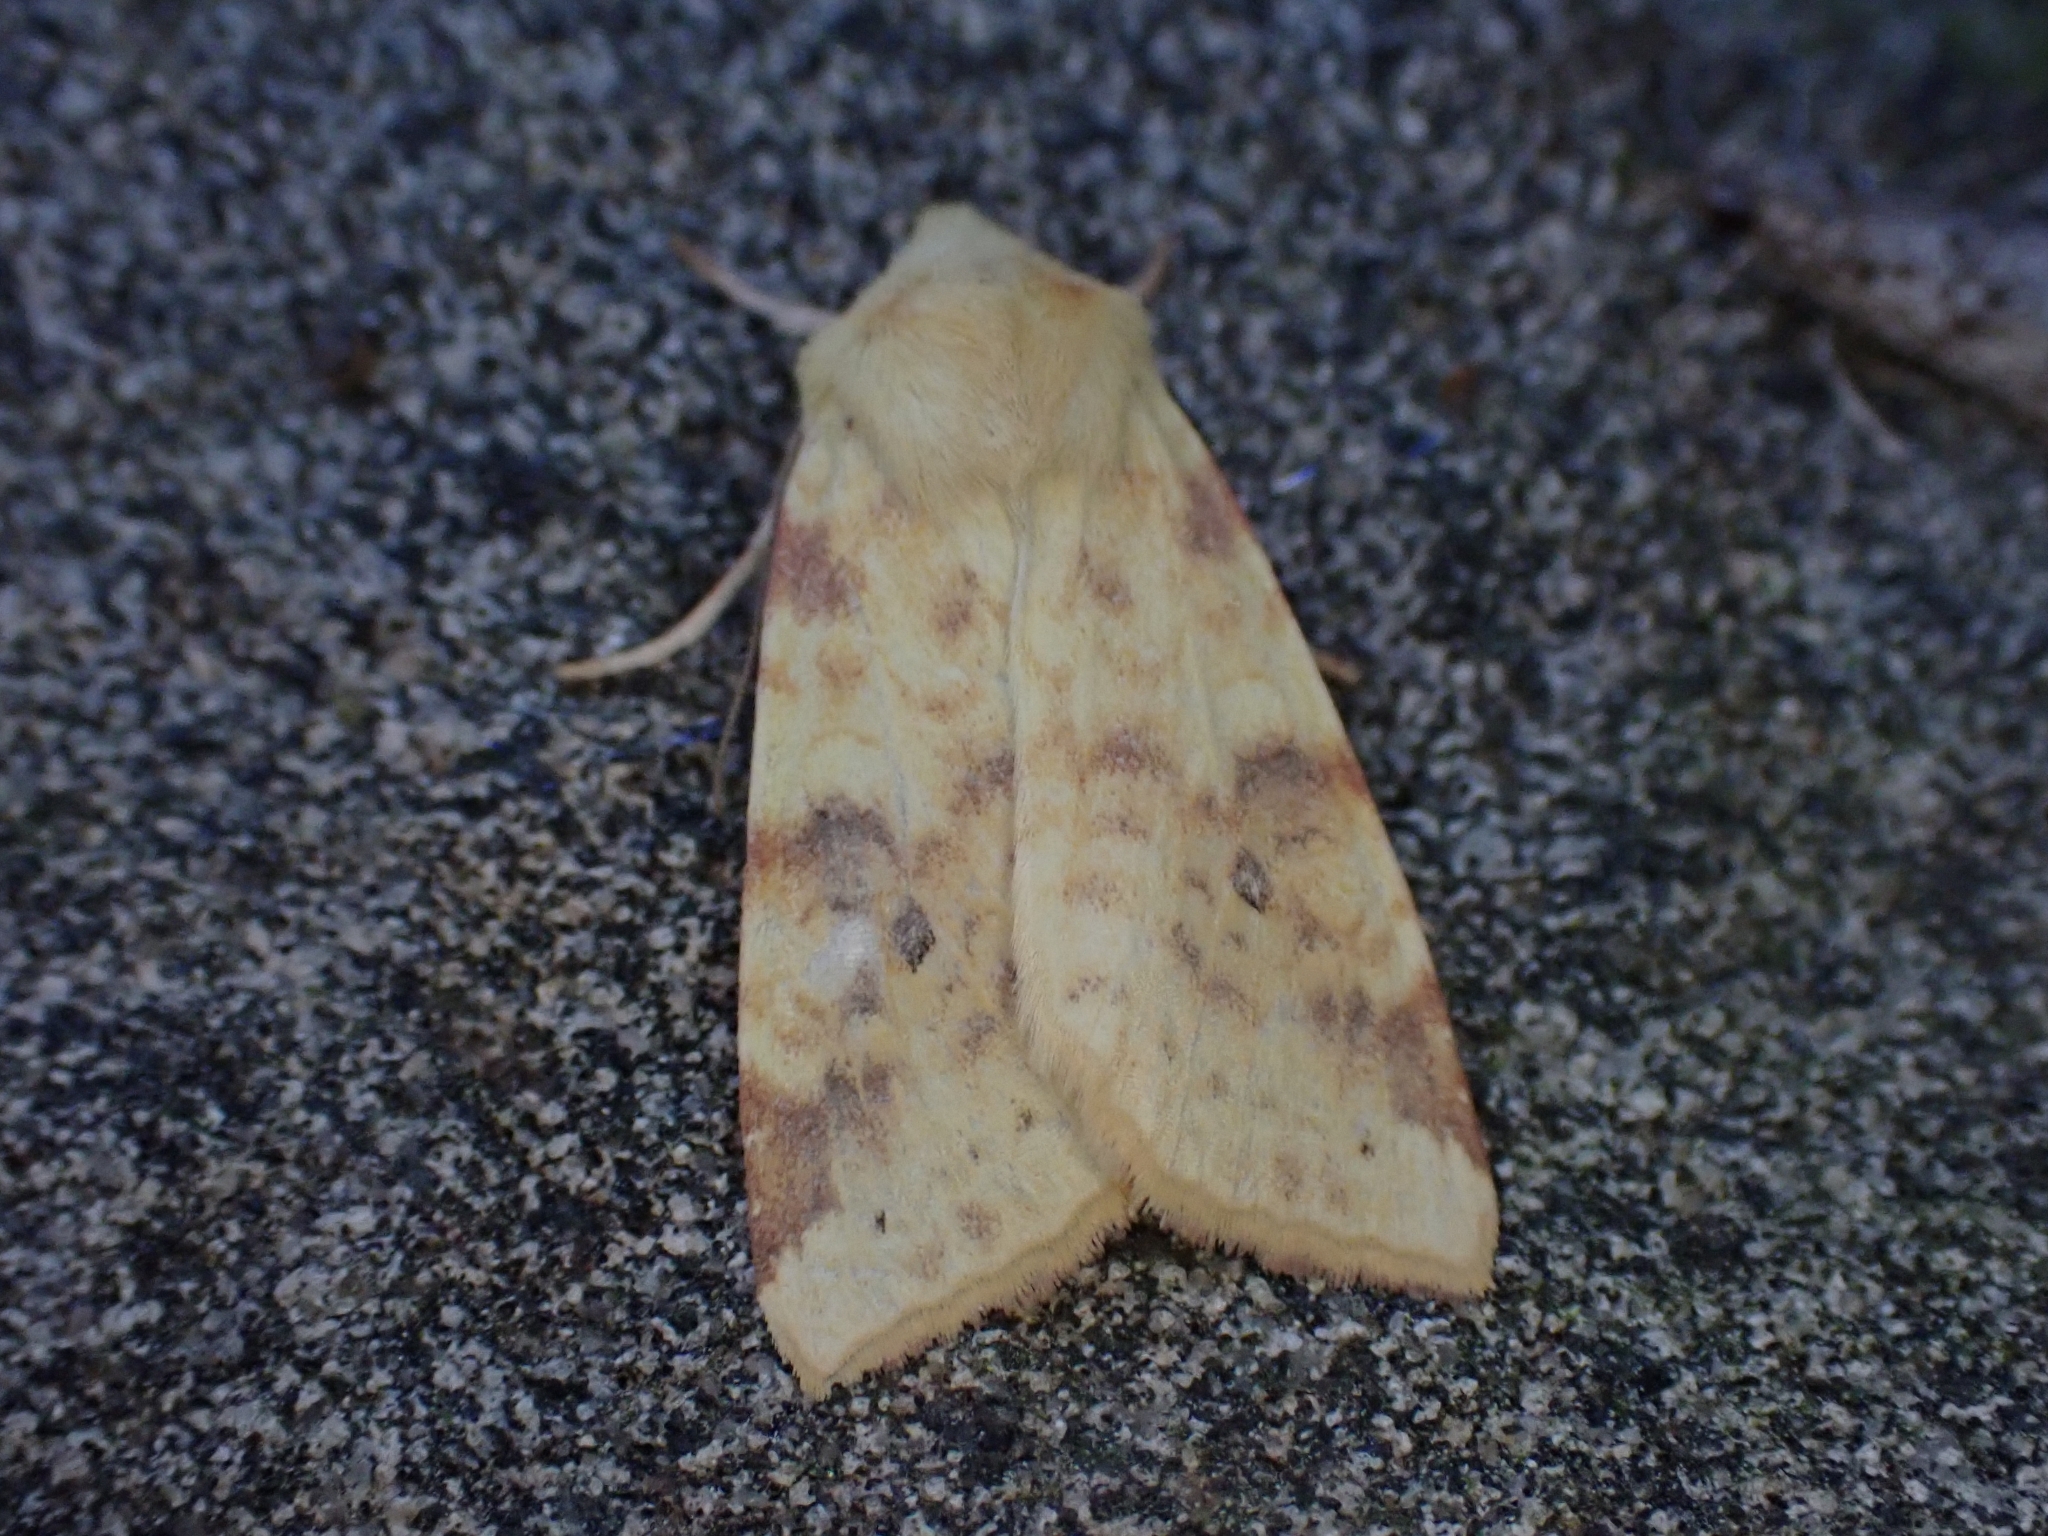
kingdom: Animalia
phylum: Arthropoda
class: Insecta
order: Lepidoptera
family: Noctuidae
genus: Xanthia
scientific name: Xanthia icteritia
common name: The sallow
